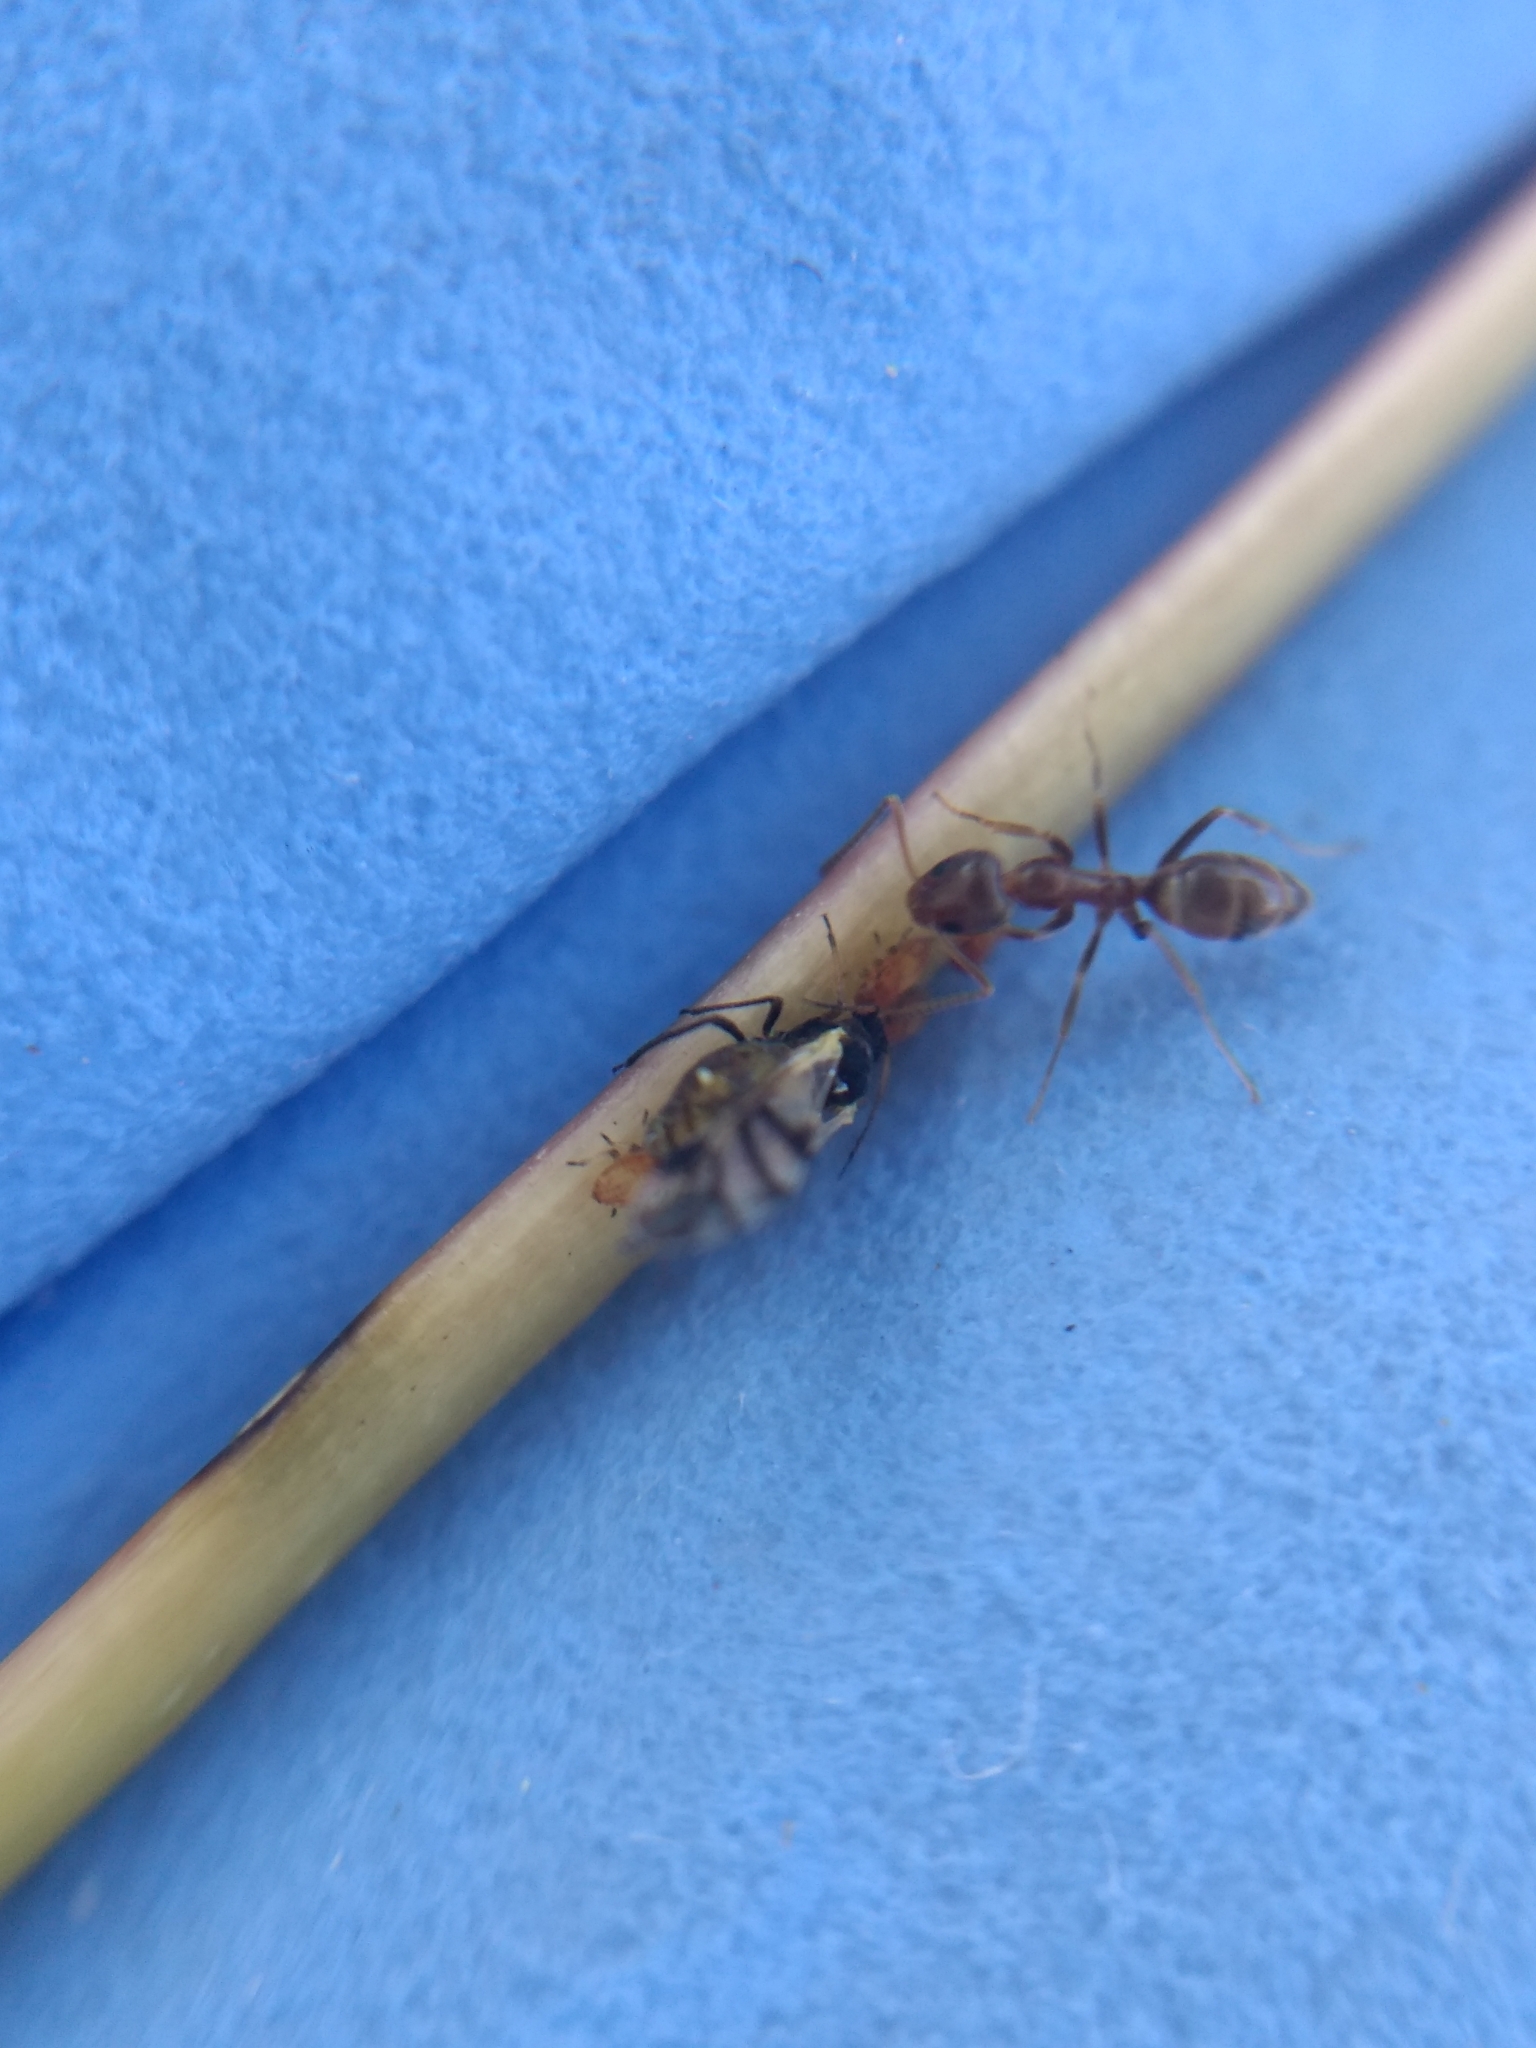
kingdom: Animalia
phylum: Arthropoda
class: Insecta
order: Hymenoptera
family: Formicidae
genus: Linepithema
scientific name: Linepithema humile
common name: Argentine ant
